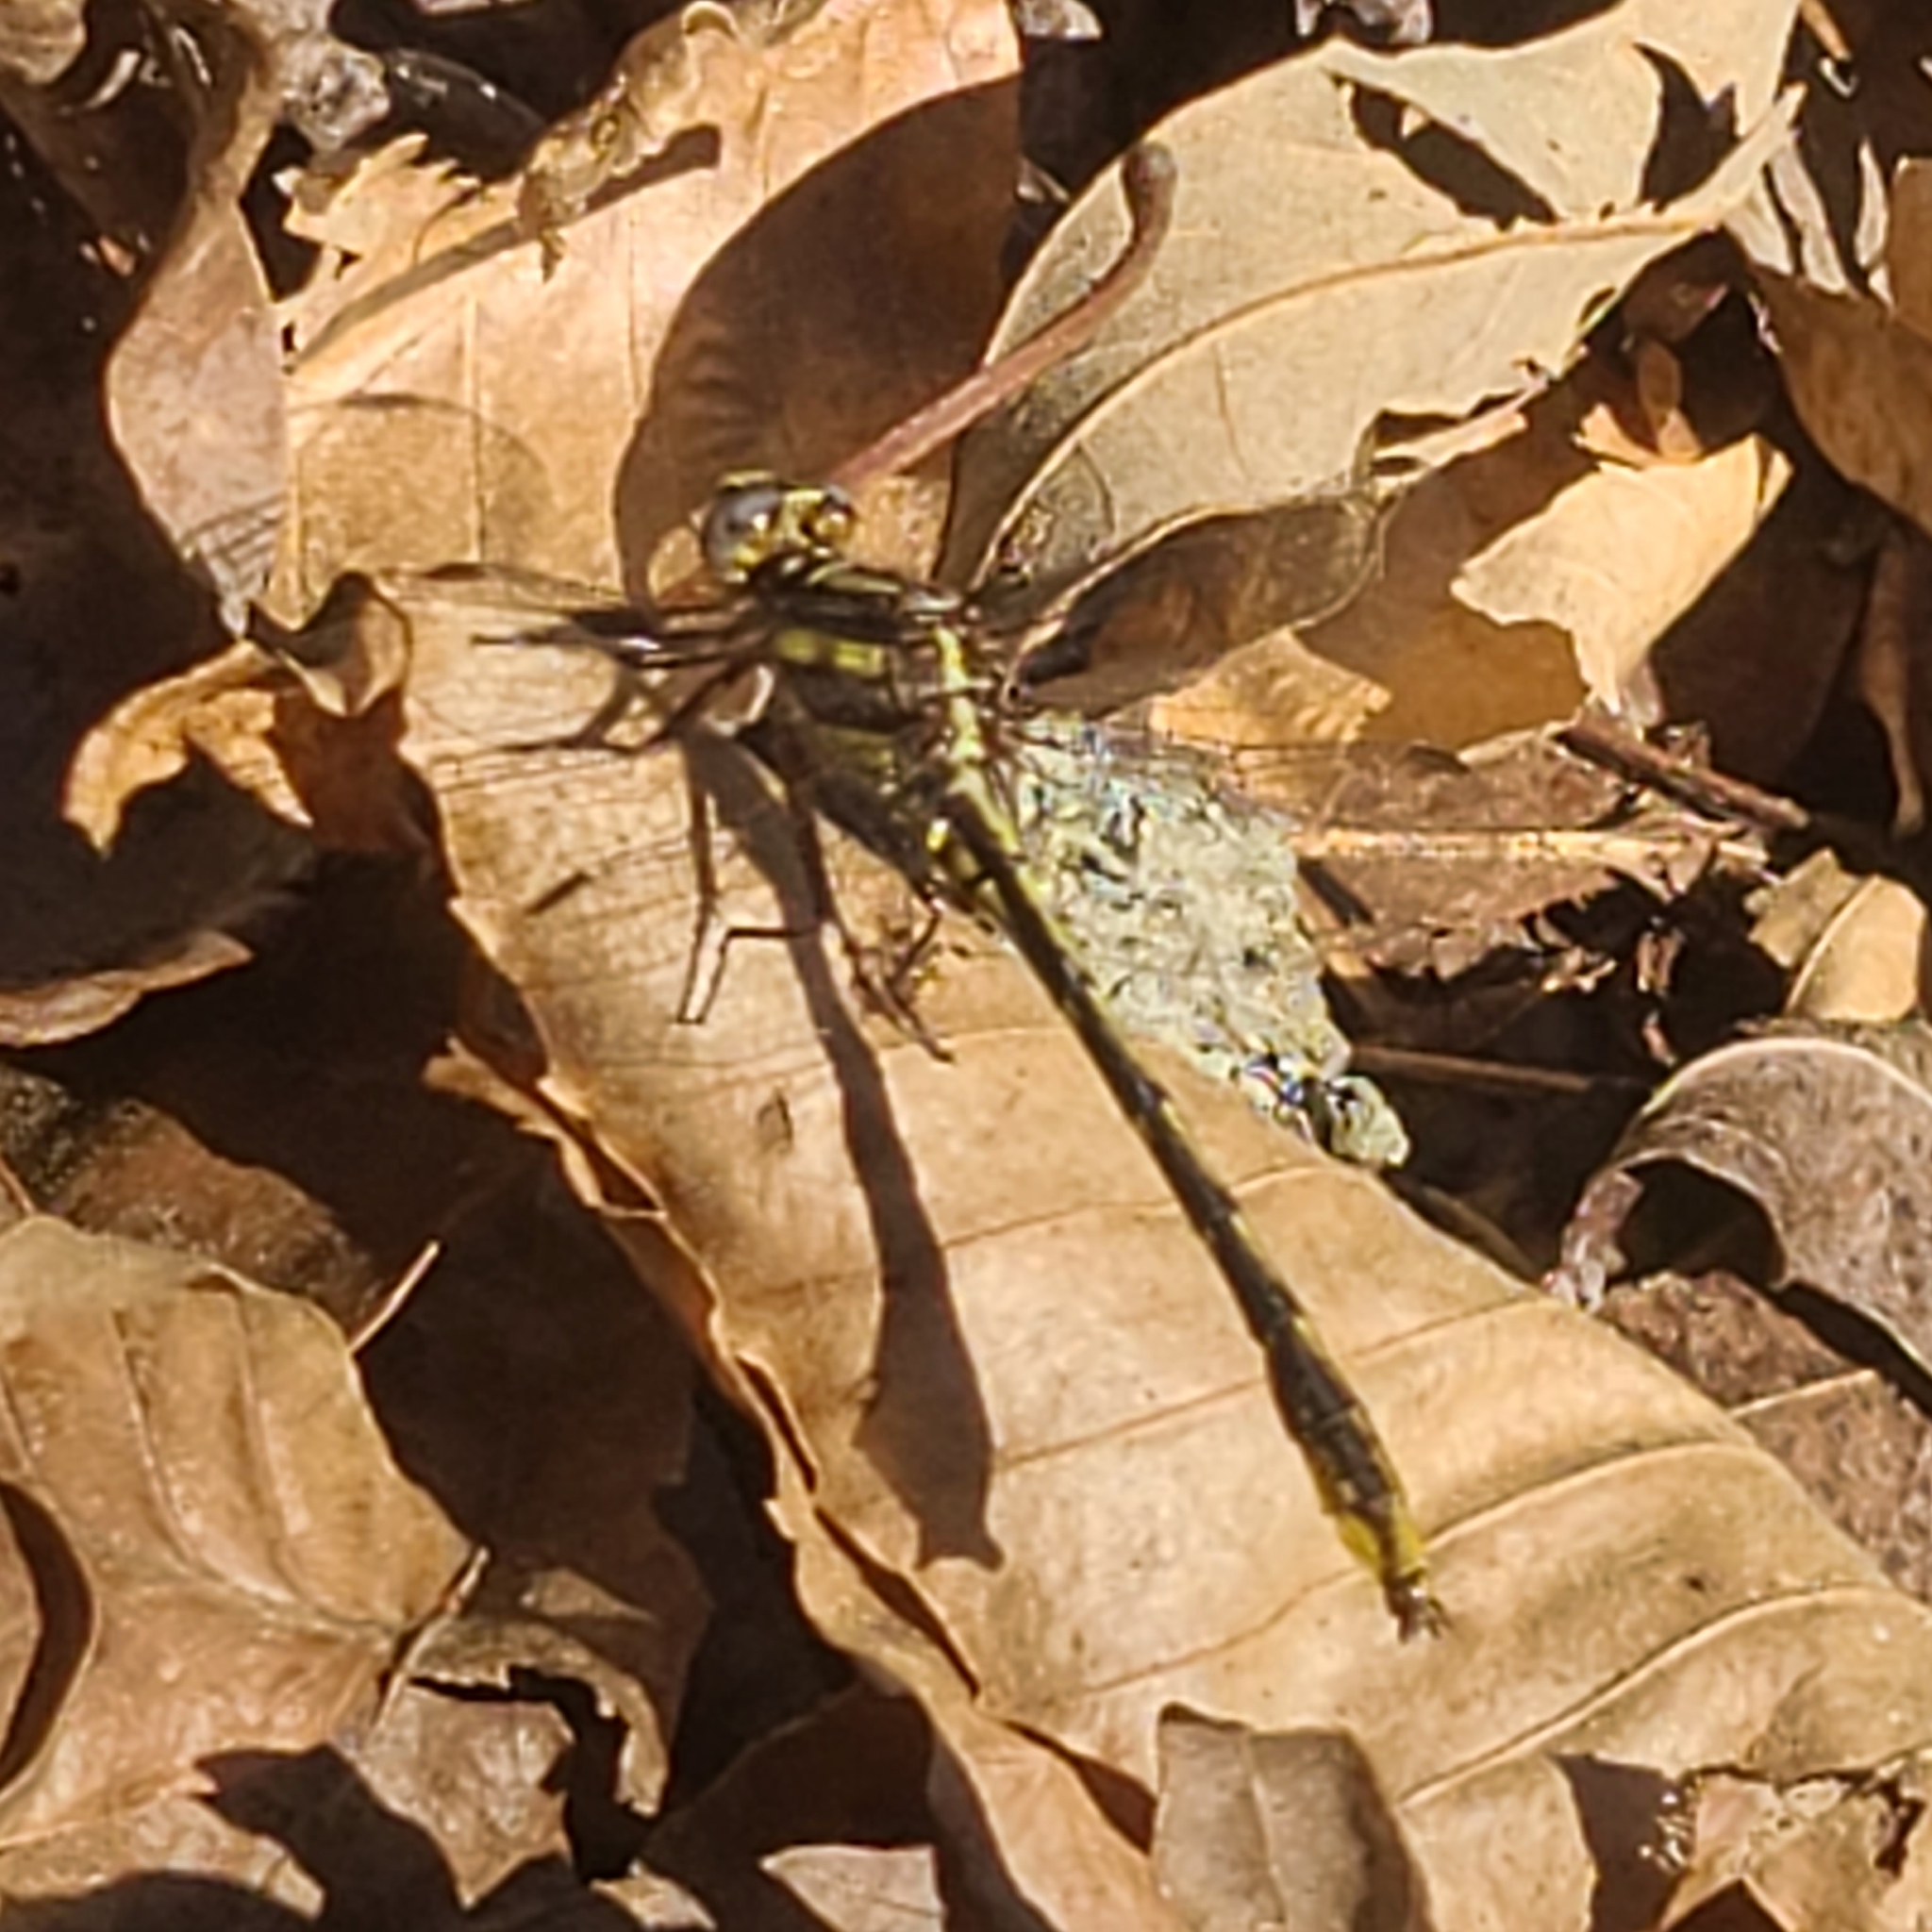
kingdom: Animalia
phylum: Arthropoda
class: Insecta
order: Odonata
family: Gomphidae
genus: Phanogomphus
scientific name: Phanogomphus exilis
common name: Lancet clubtail
